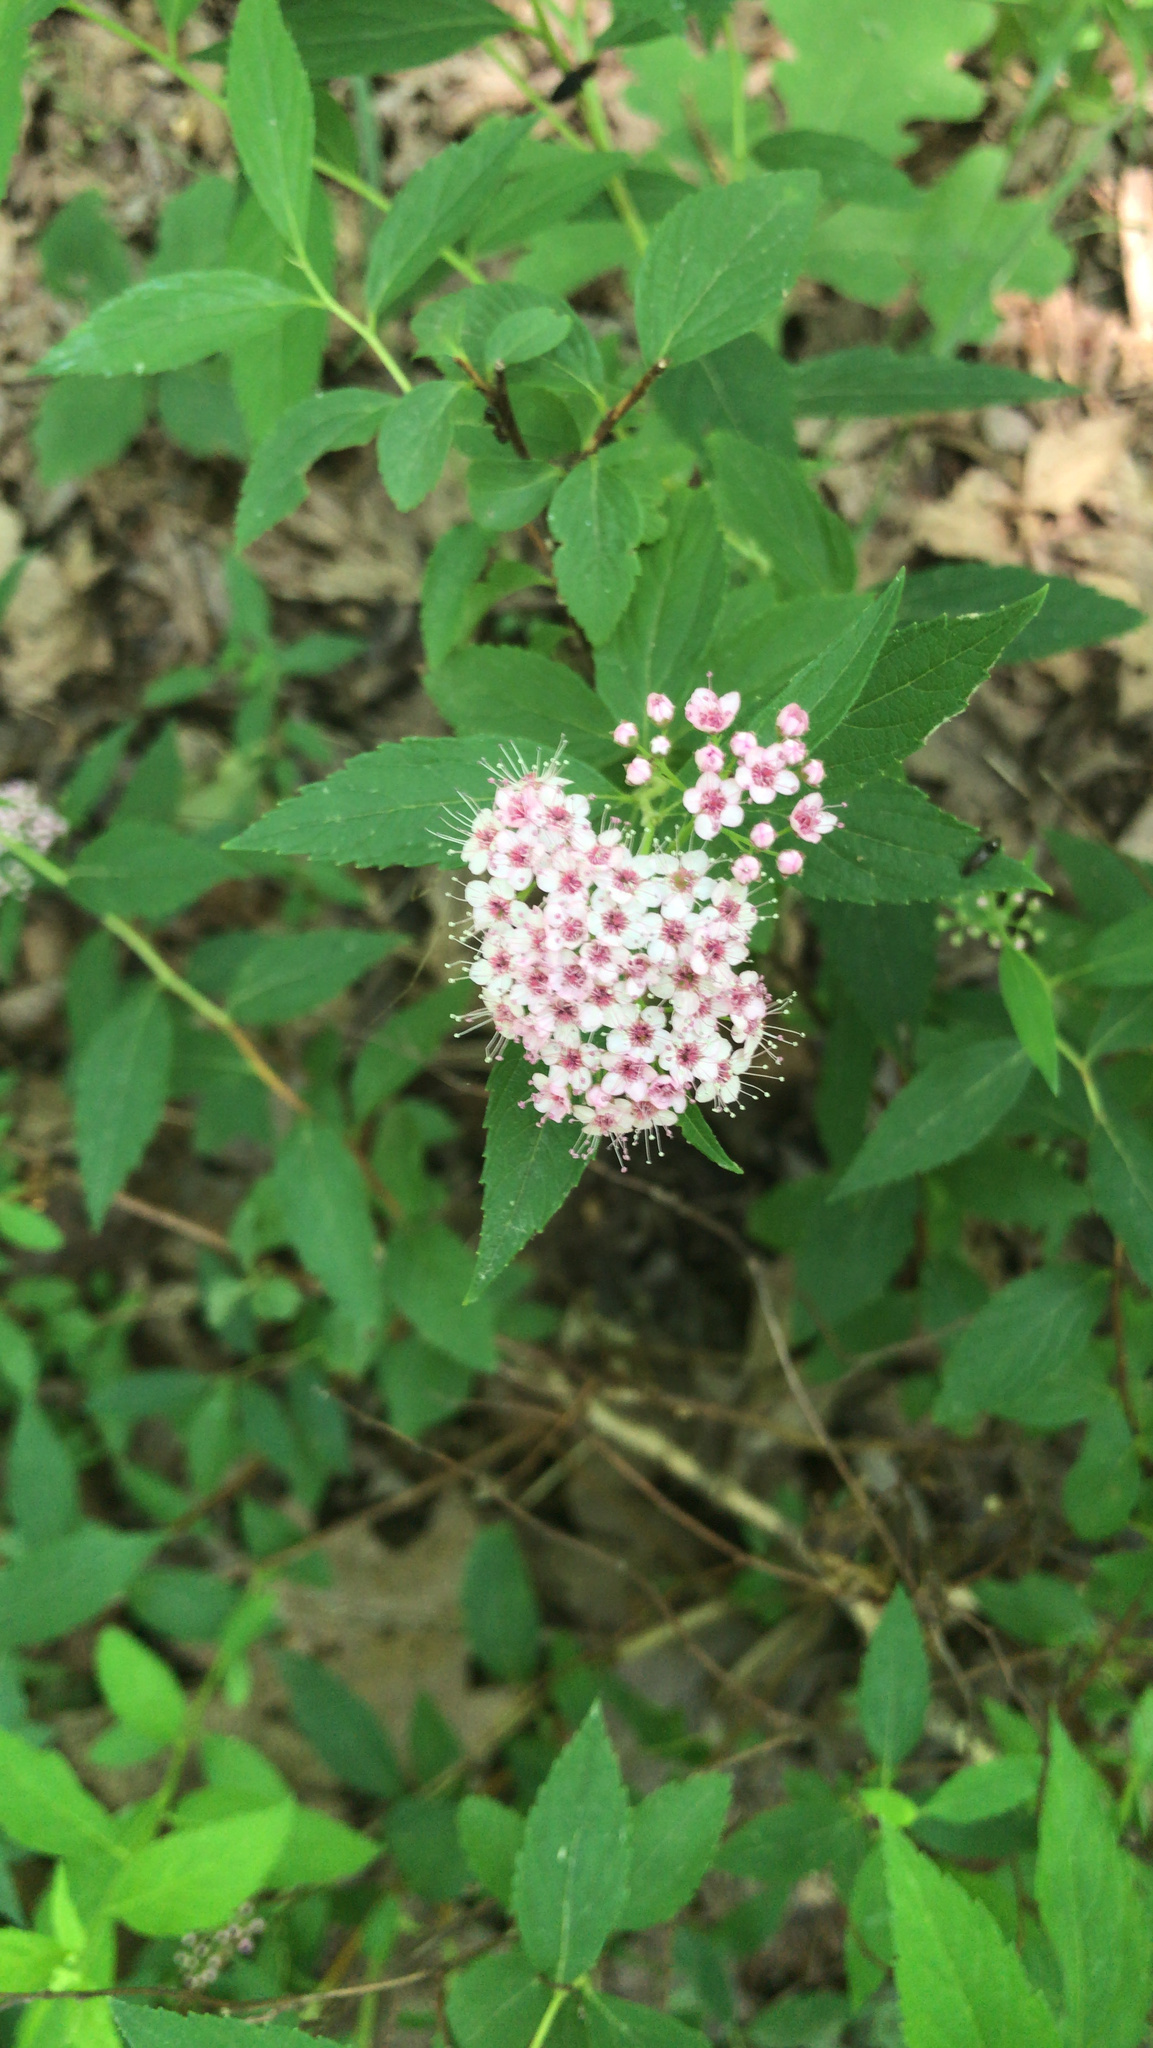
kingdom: Plantae
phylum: Tracheophyta
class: Magnoliopsida
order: Rosales
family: Rosaceae
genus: Spiraea
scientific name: Spiraea japonica
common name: Japanese spiraea
